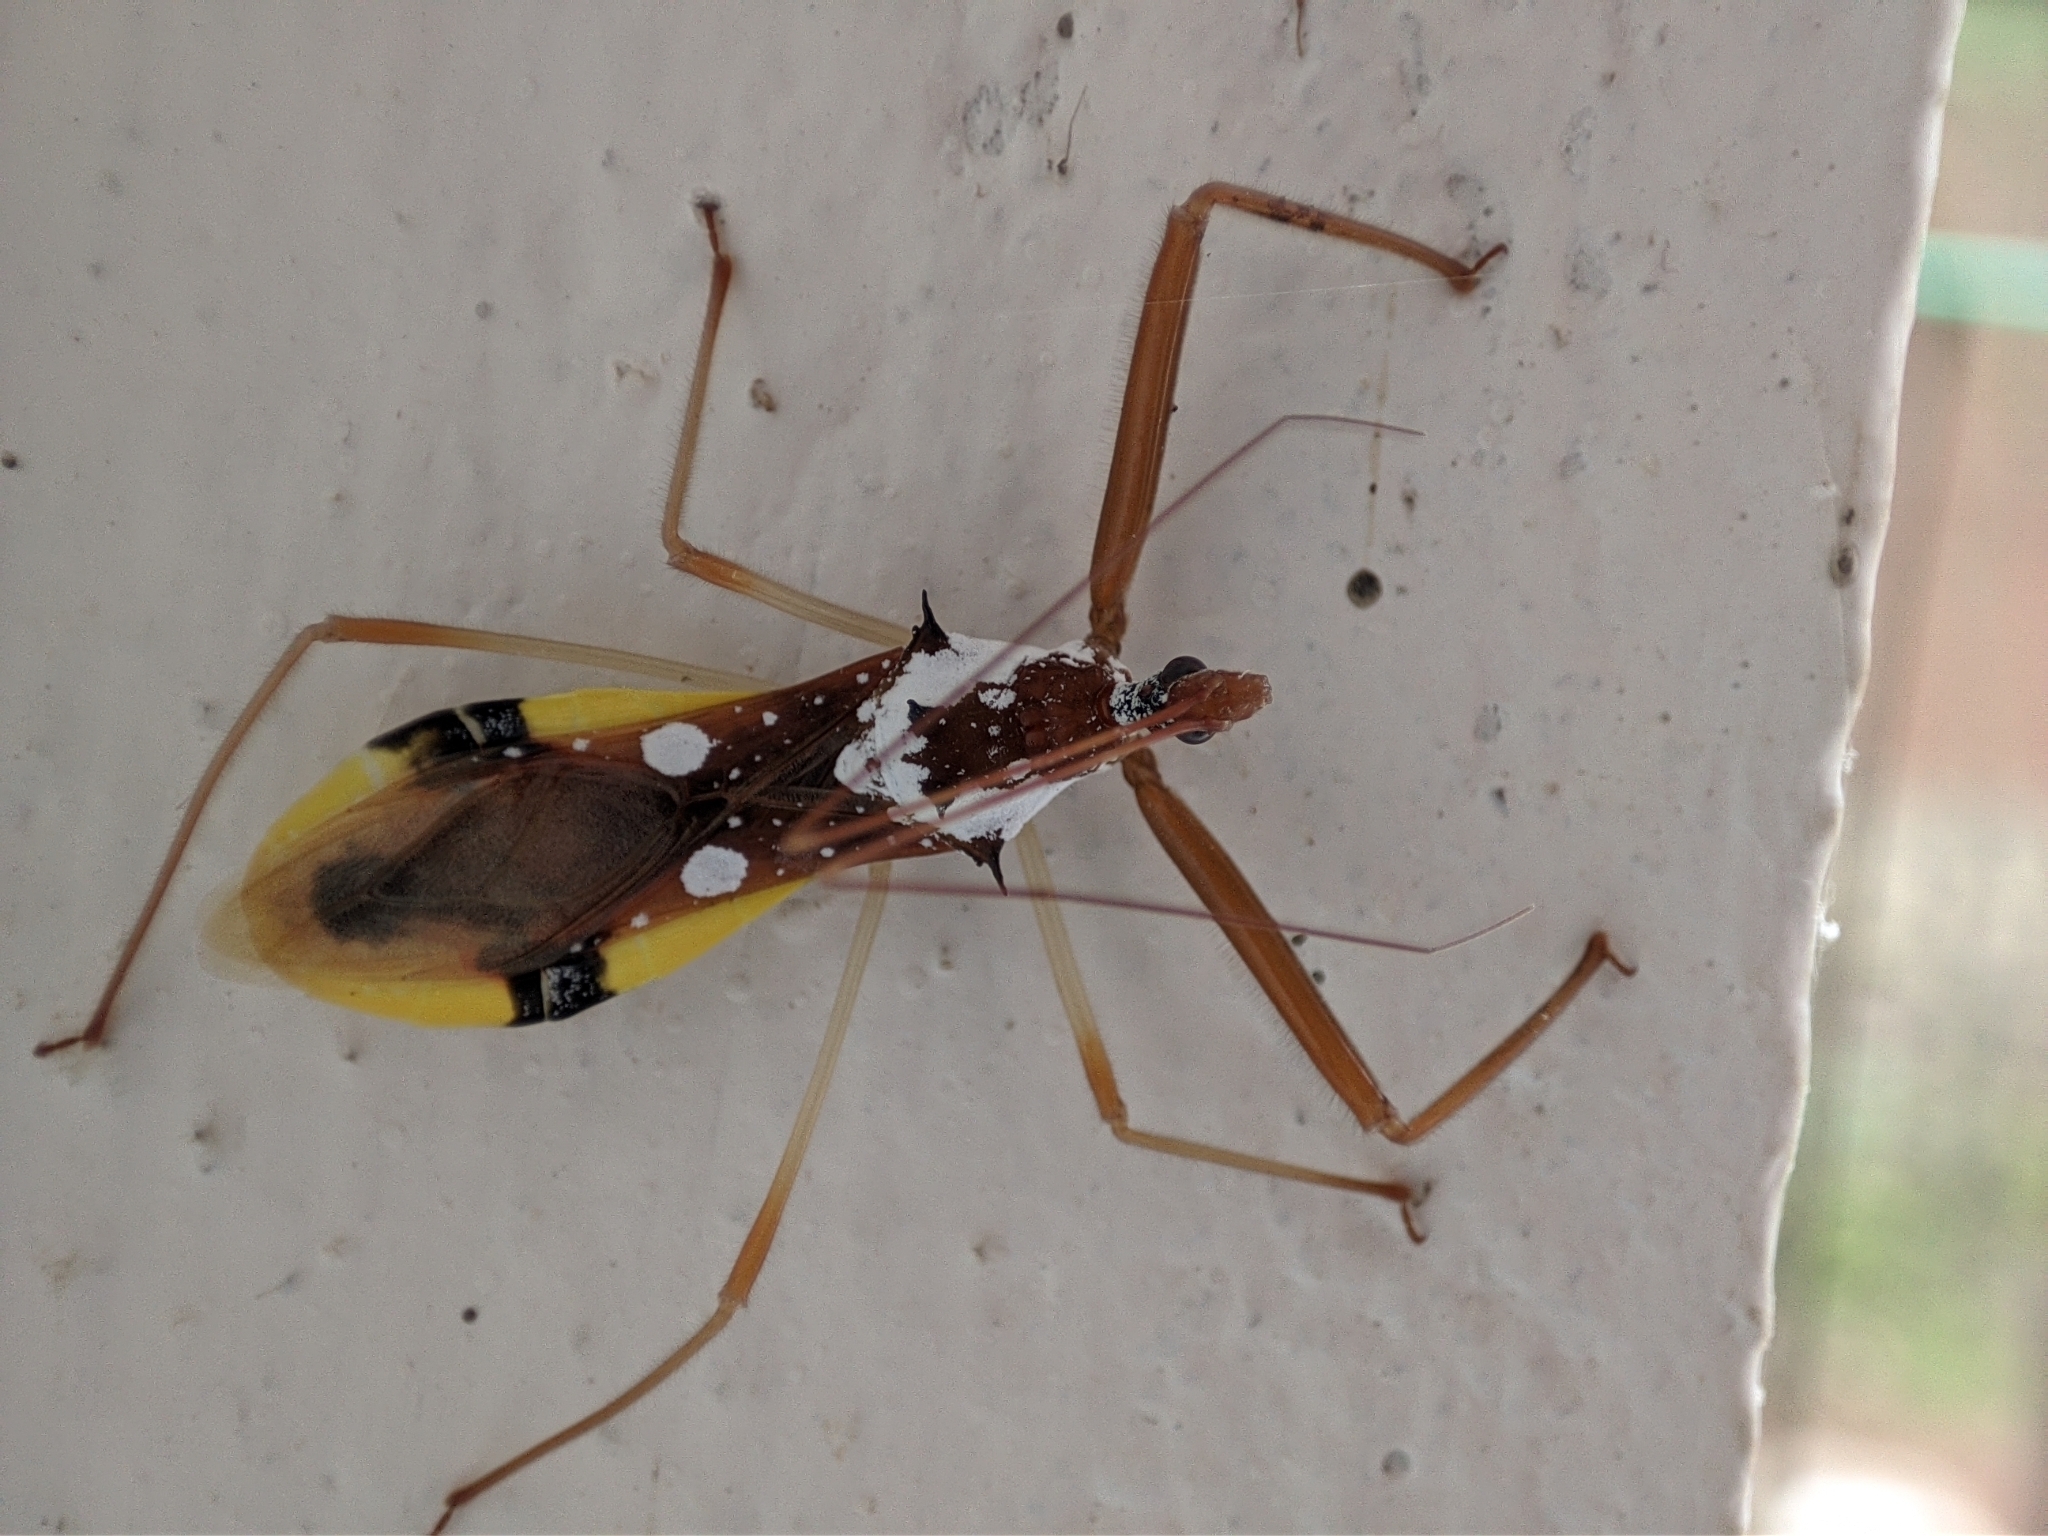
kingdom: Animalia
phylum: Arthropoda
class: Insecta
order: Hemiptera
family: Reduviidae
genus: Epidaus
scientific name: Epidaus famulus
